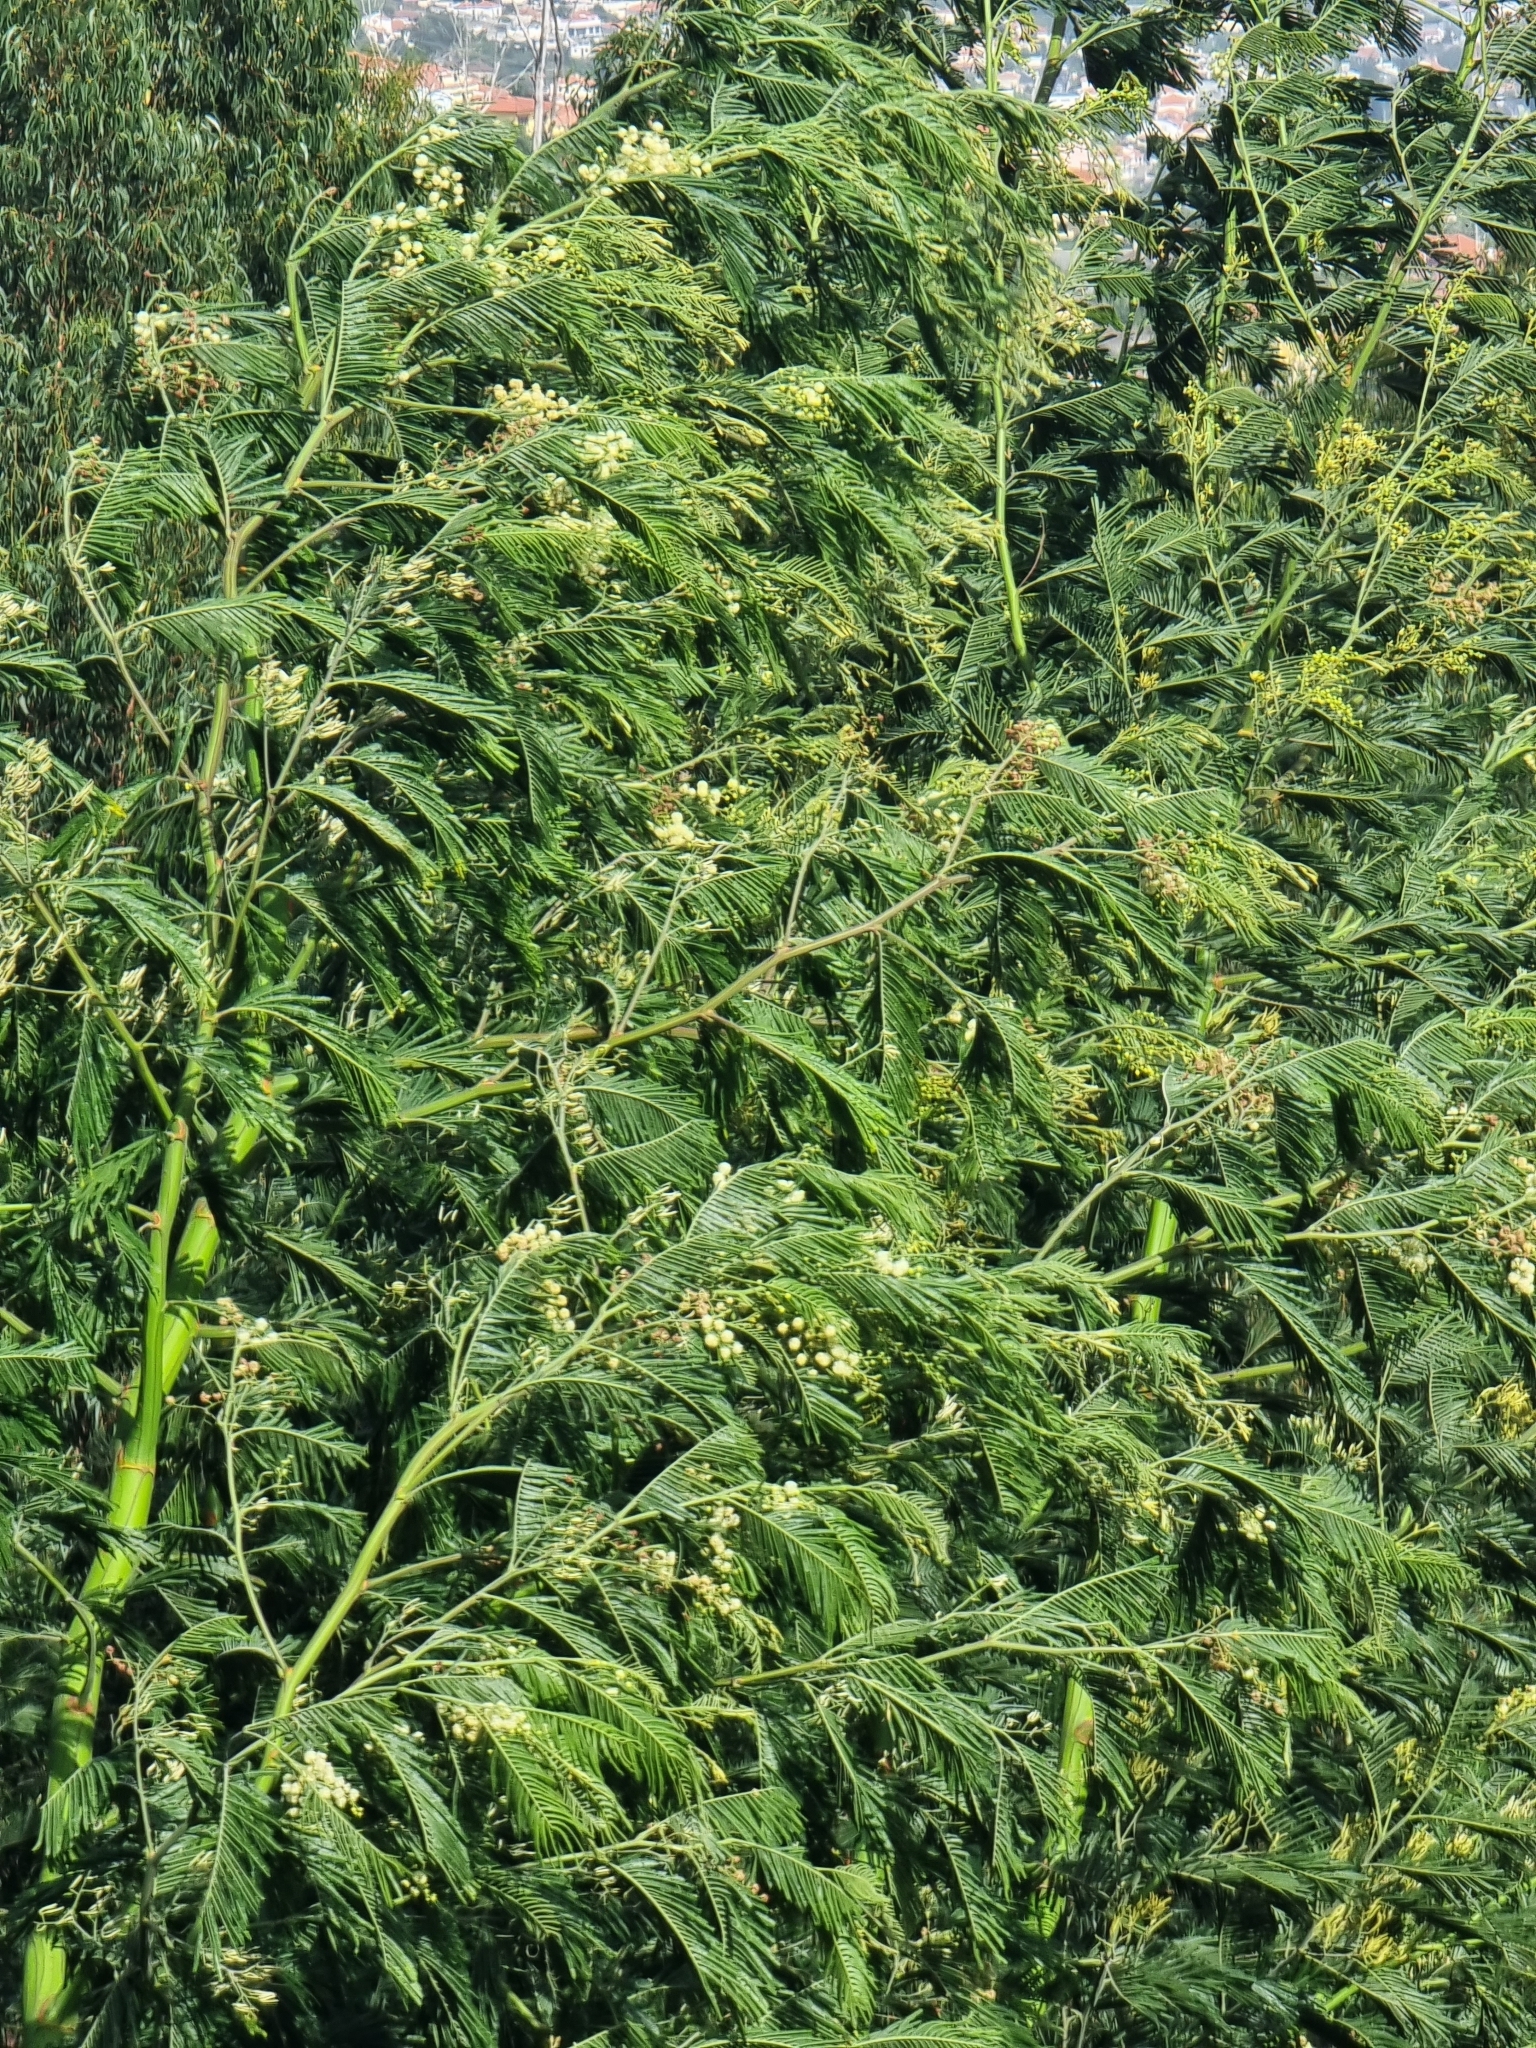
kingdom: Plantae
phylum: Tracheophyta
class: Magnoliopsida
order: Fabales
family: Fabaceae
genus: Acacia
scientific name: Acacia mearnsii
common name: Black wattle
